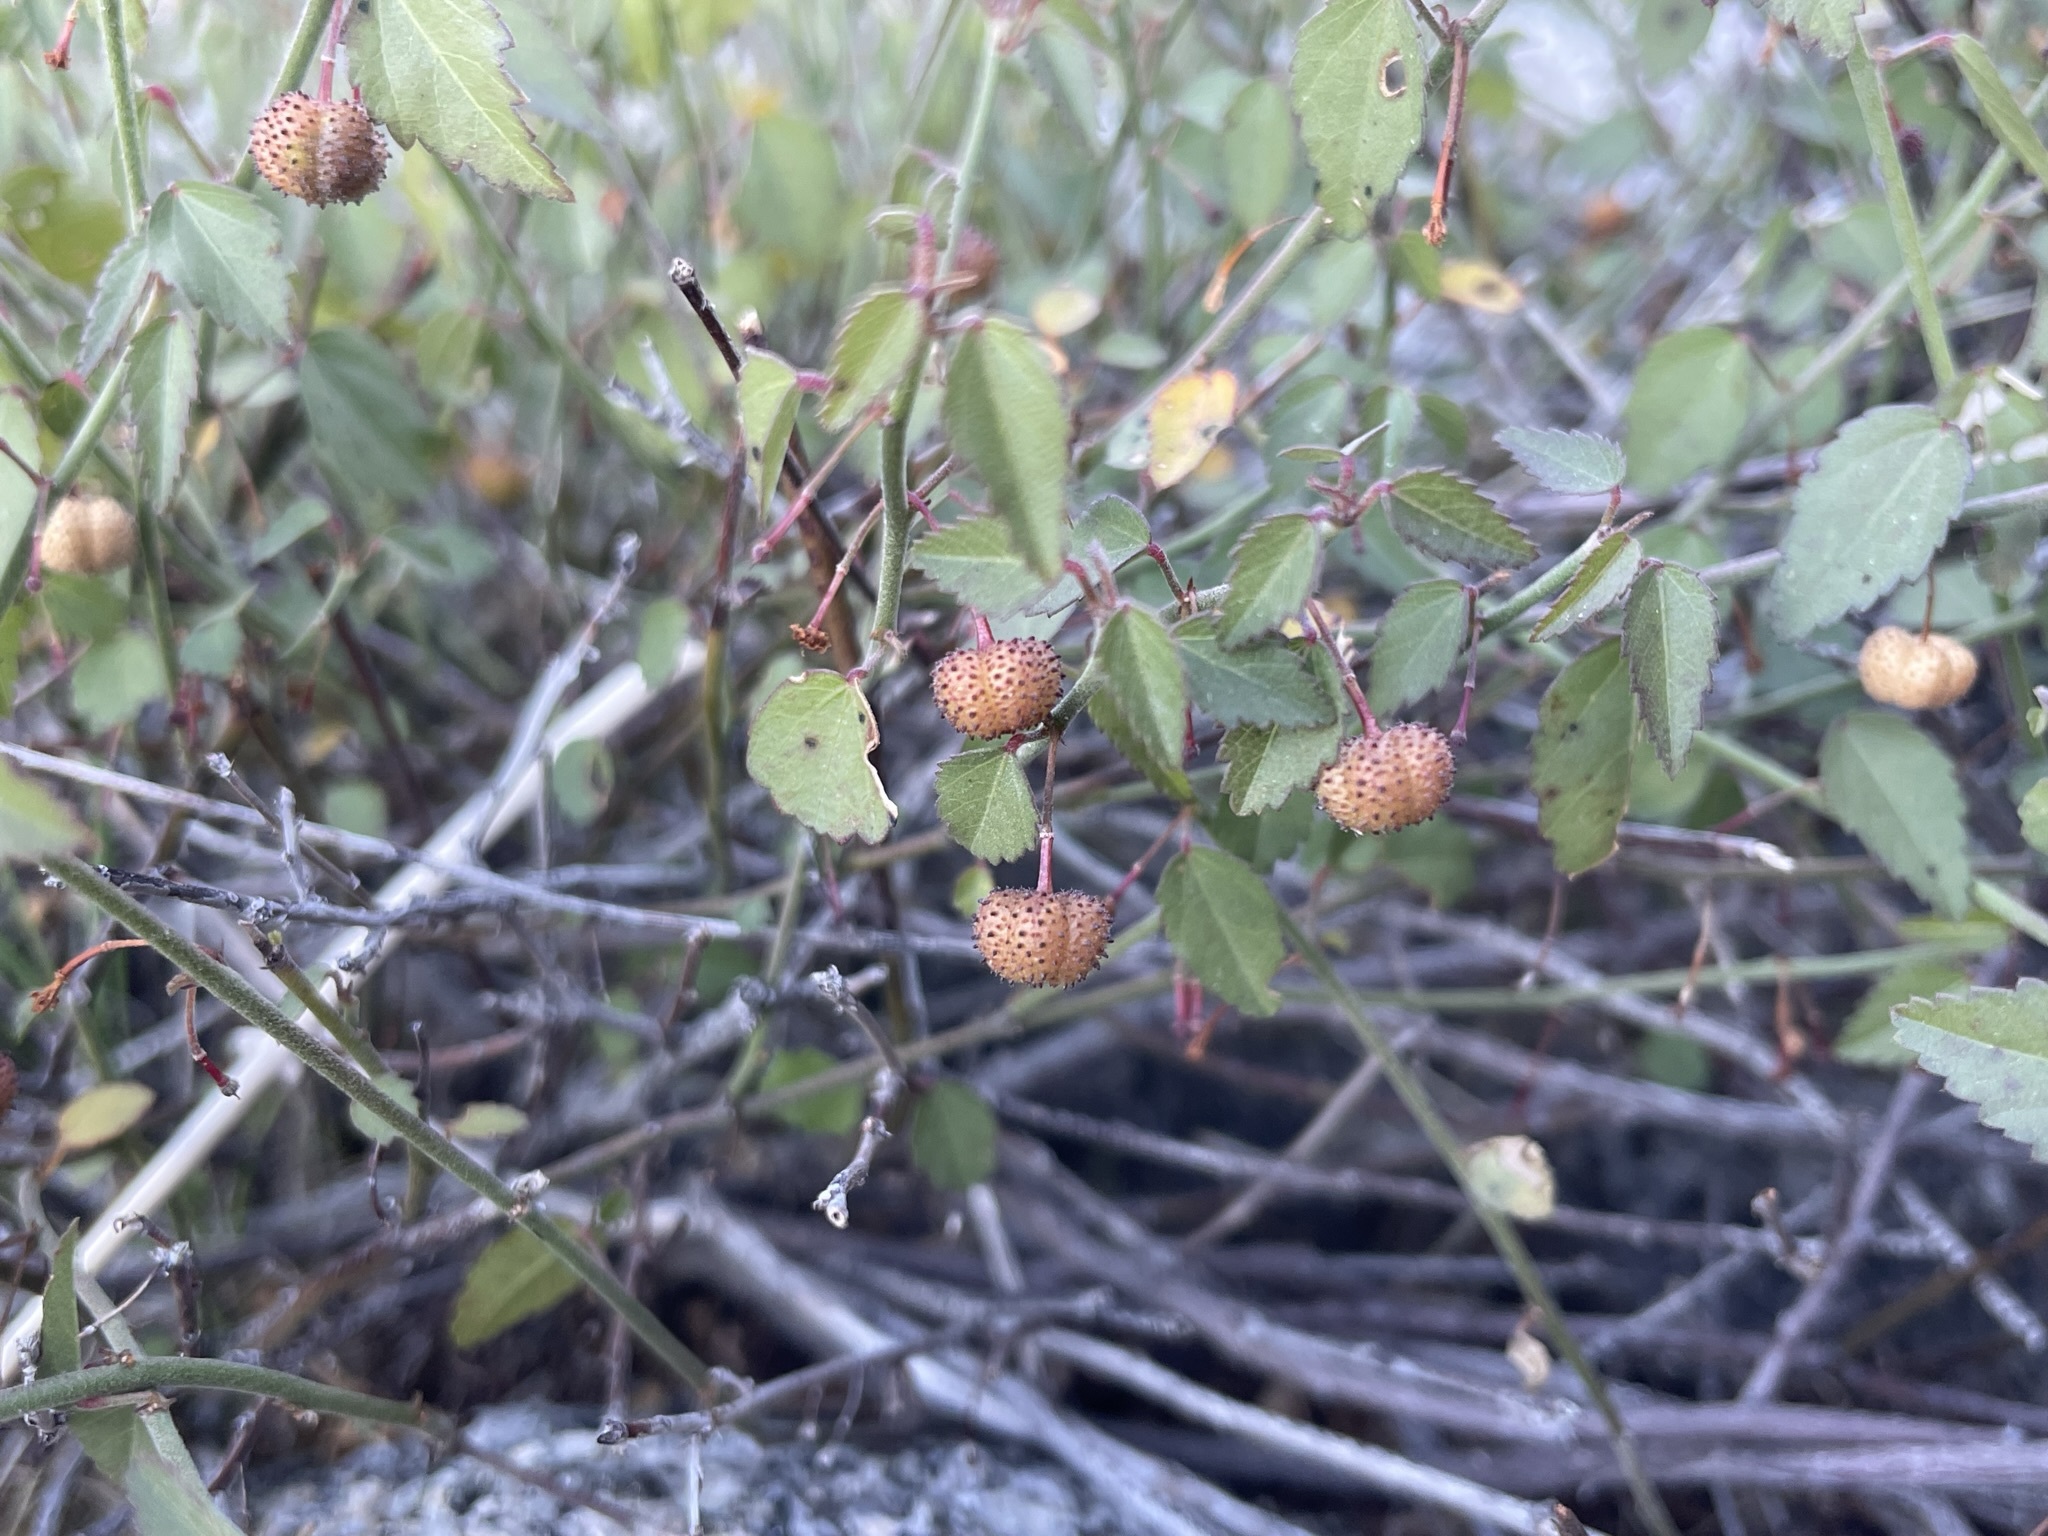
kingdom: Plantae
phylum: Tracheophyta
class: Magnoliopsida
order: Malvales
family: Malvaceae
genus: Ayenia
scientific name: Ayenia compacta
